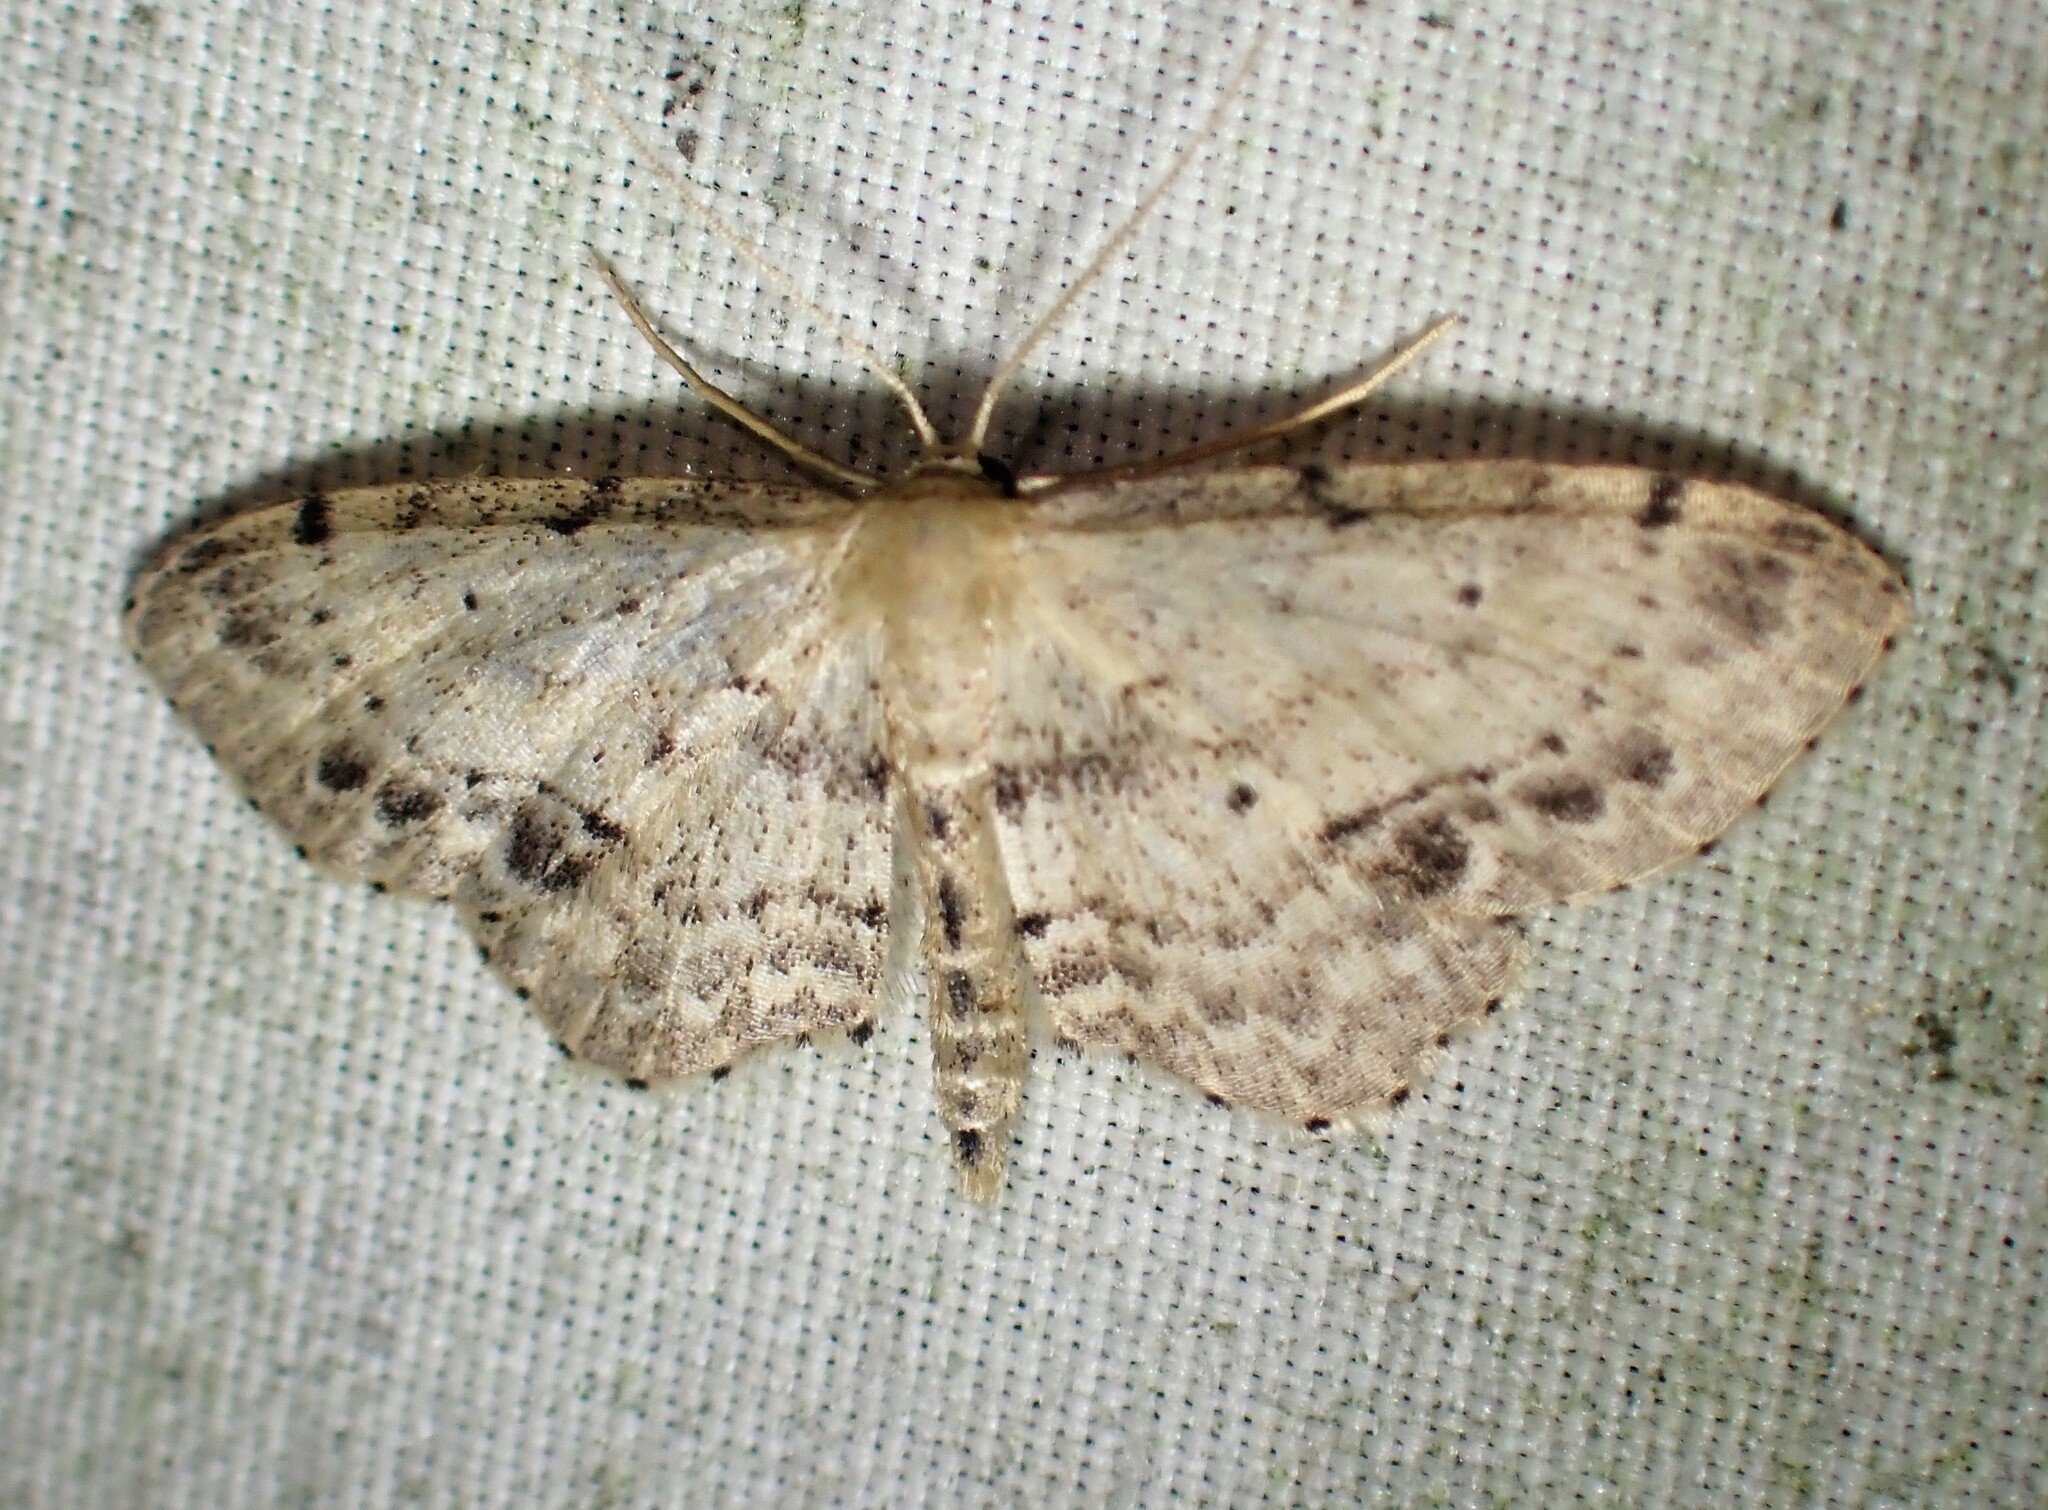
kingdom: Animalia
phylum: Arthropoda
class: Insecta
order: Lepidoptera
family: Geometridae
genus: Idaea
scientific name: Idaea dimidiata
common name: Single-dotted wave
